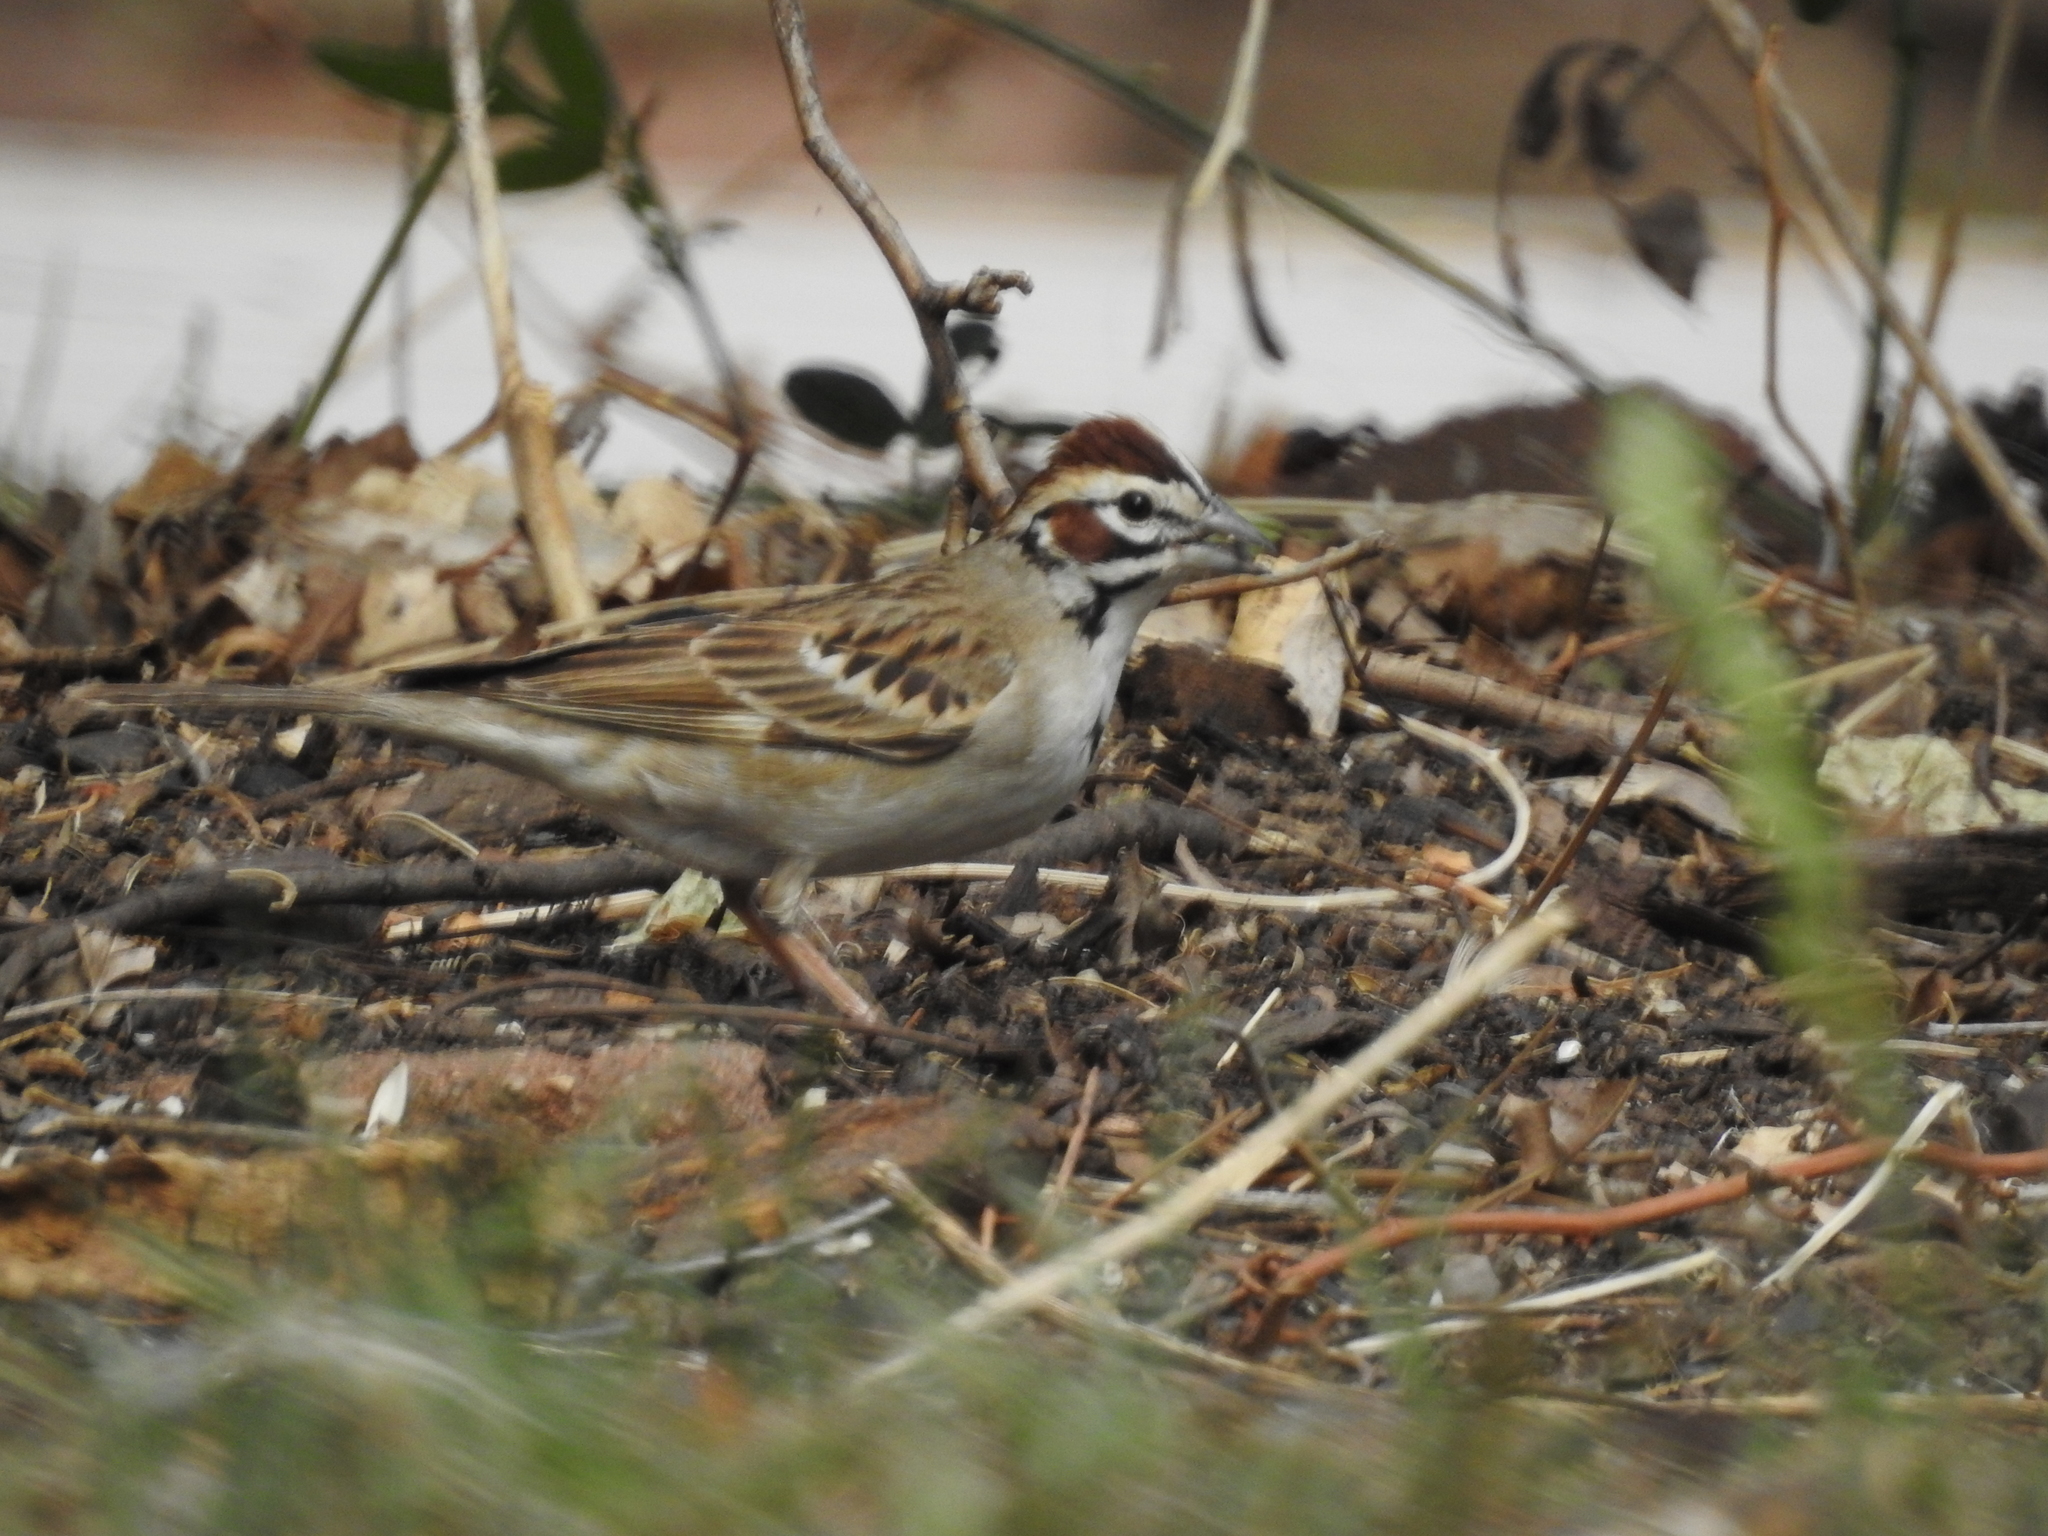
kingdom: Animalia
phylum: Chordata
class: Aves
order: Passeriformes
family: Passerellidae
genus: Chondestes
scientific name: Chondestes grammacus
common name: Lark sparrow
